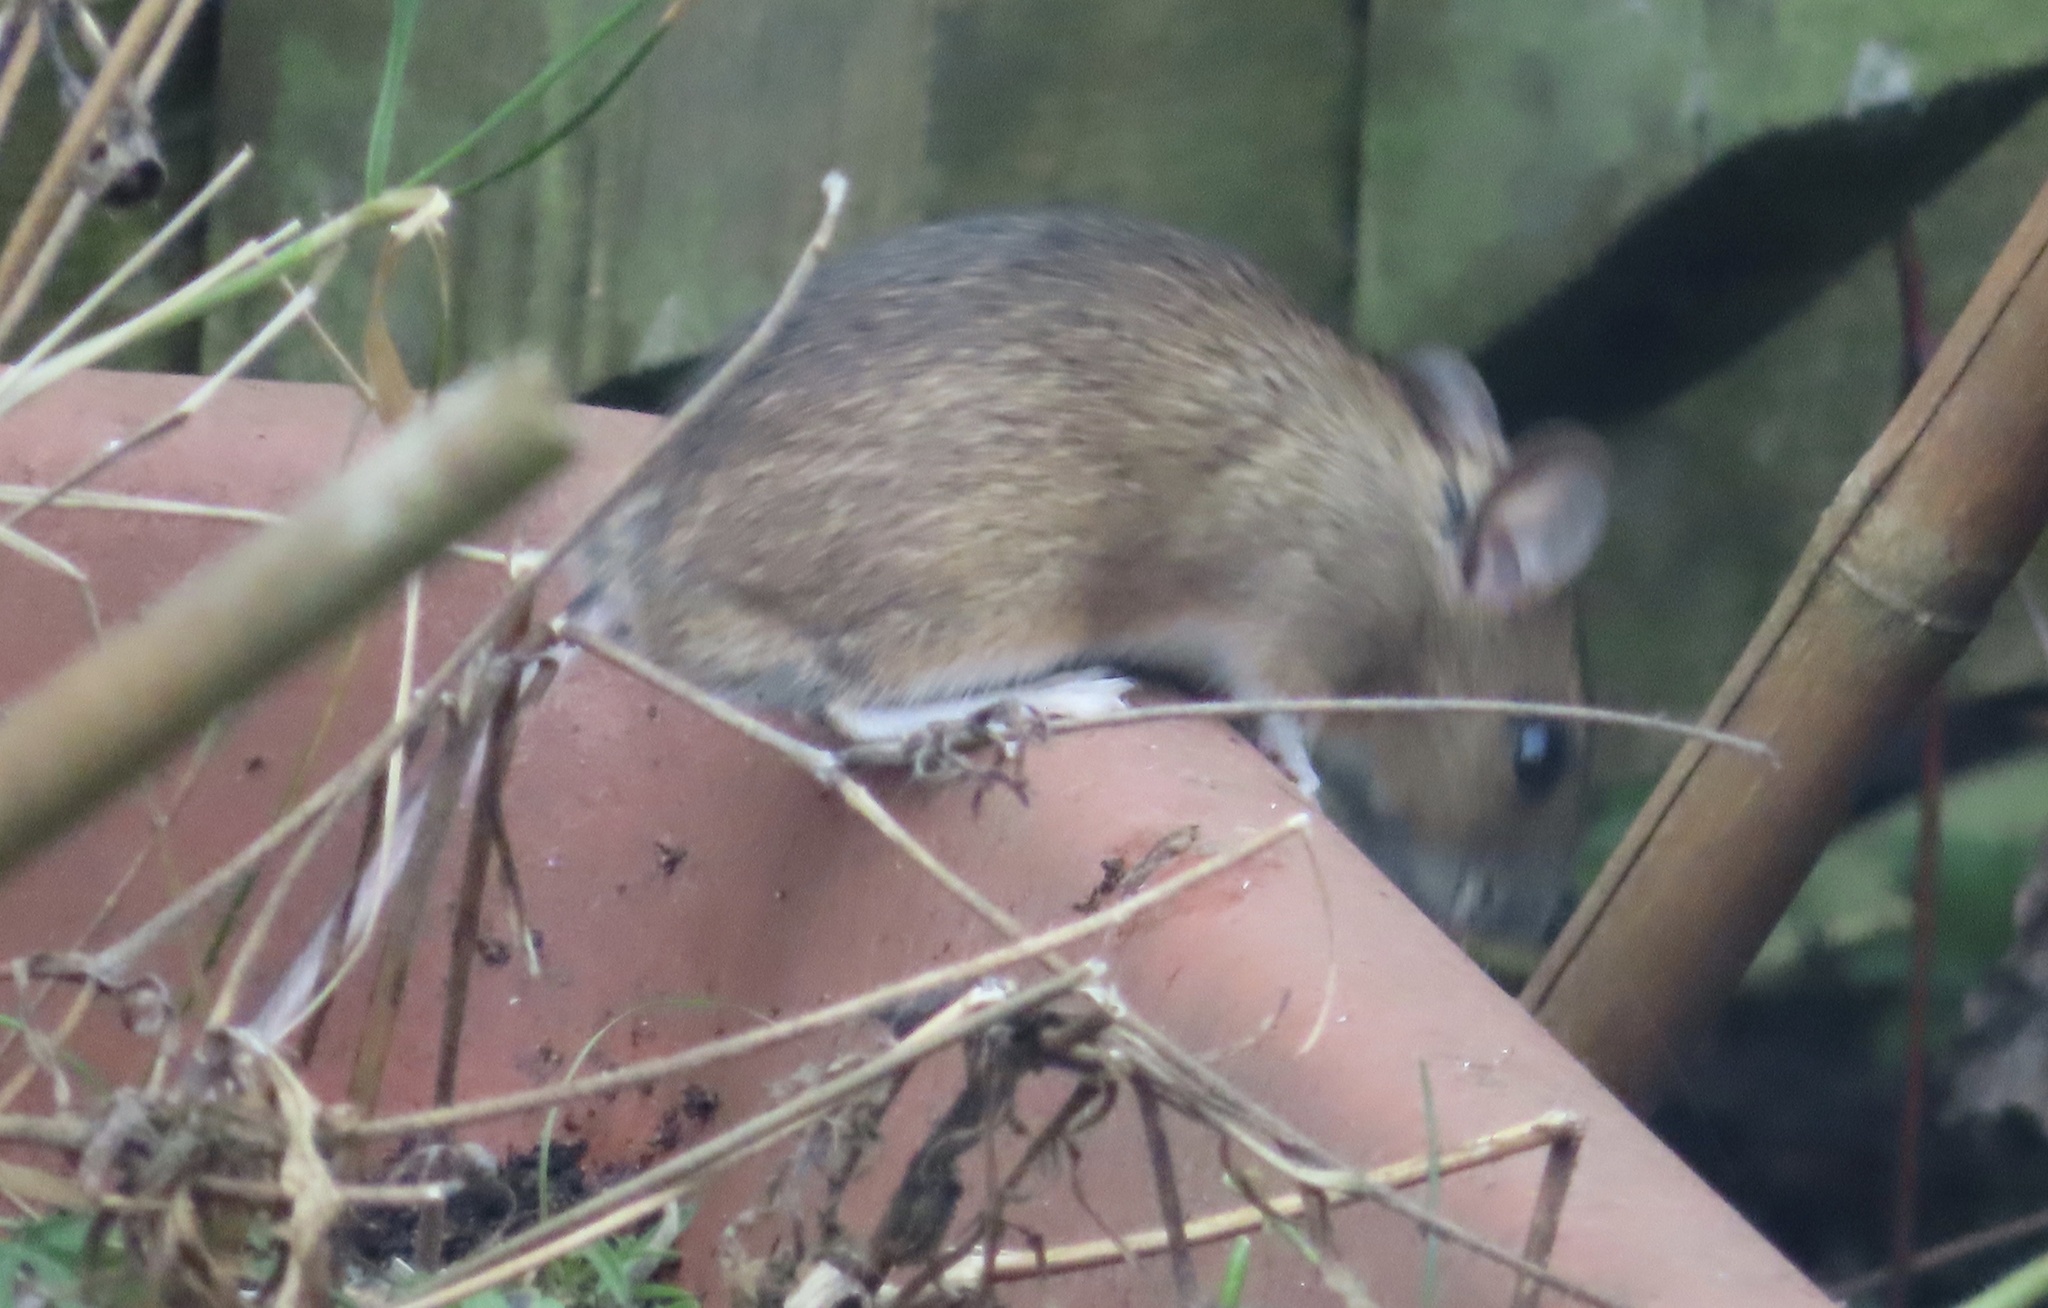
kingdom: Animalia
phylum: Chordata
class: Mammalia
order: Rodentia
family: Muridae
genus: Apodemus
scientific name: Apodemus sylvaticus
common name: Wood mouse
